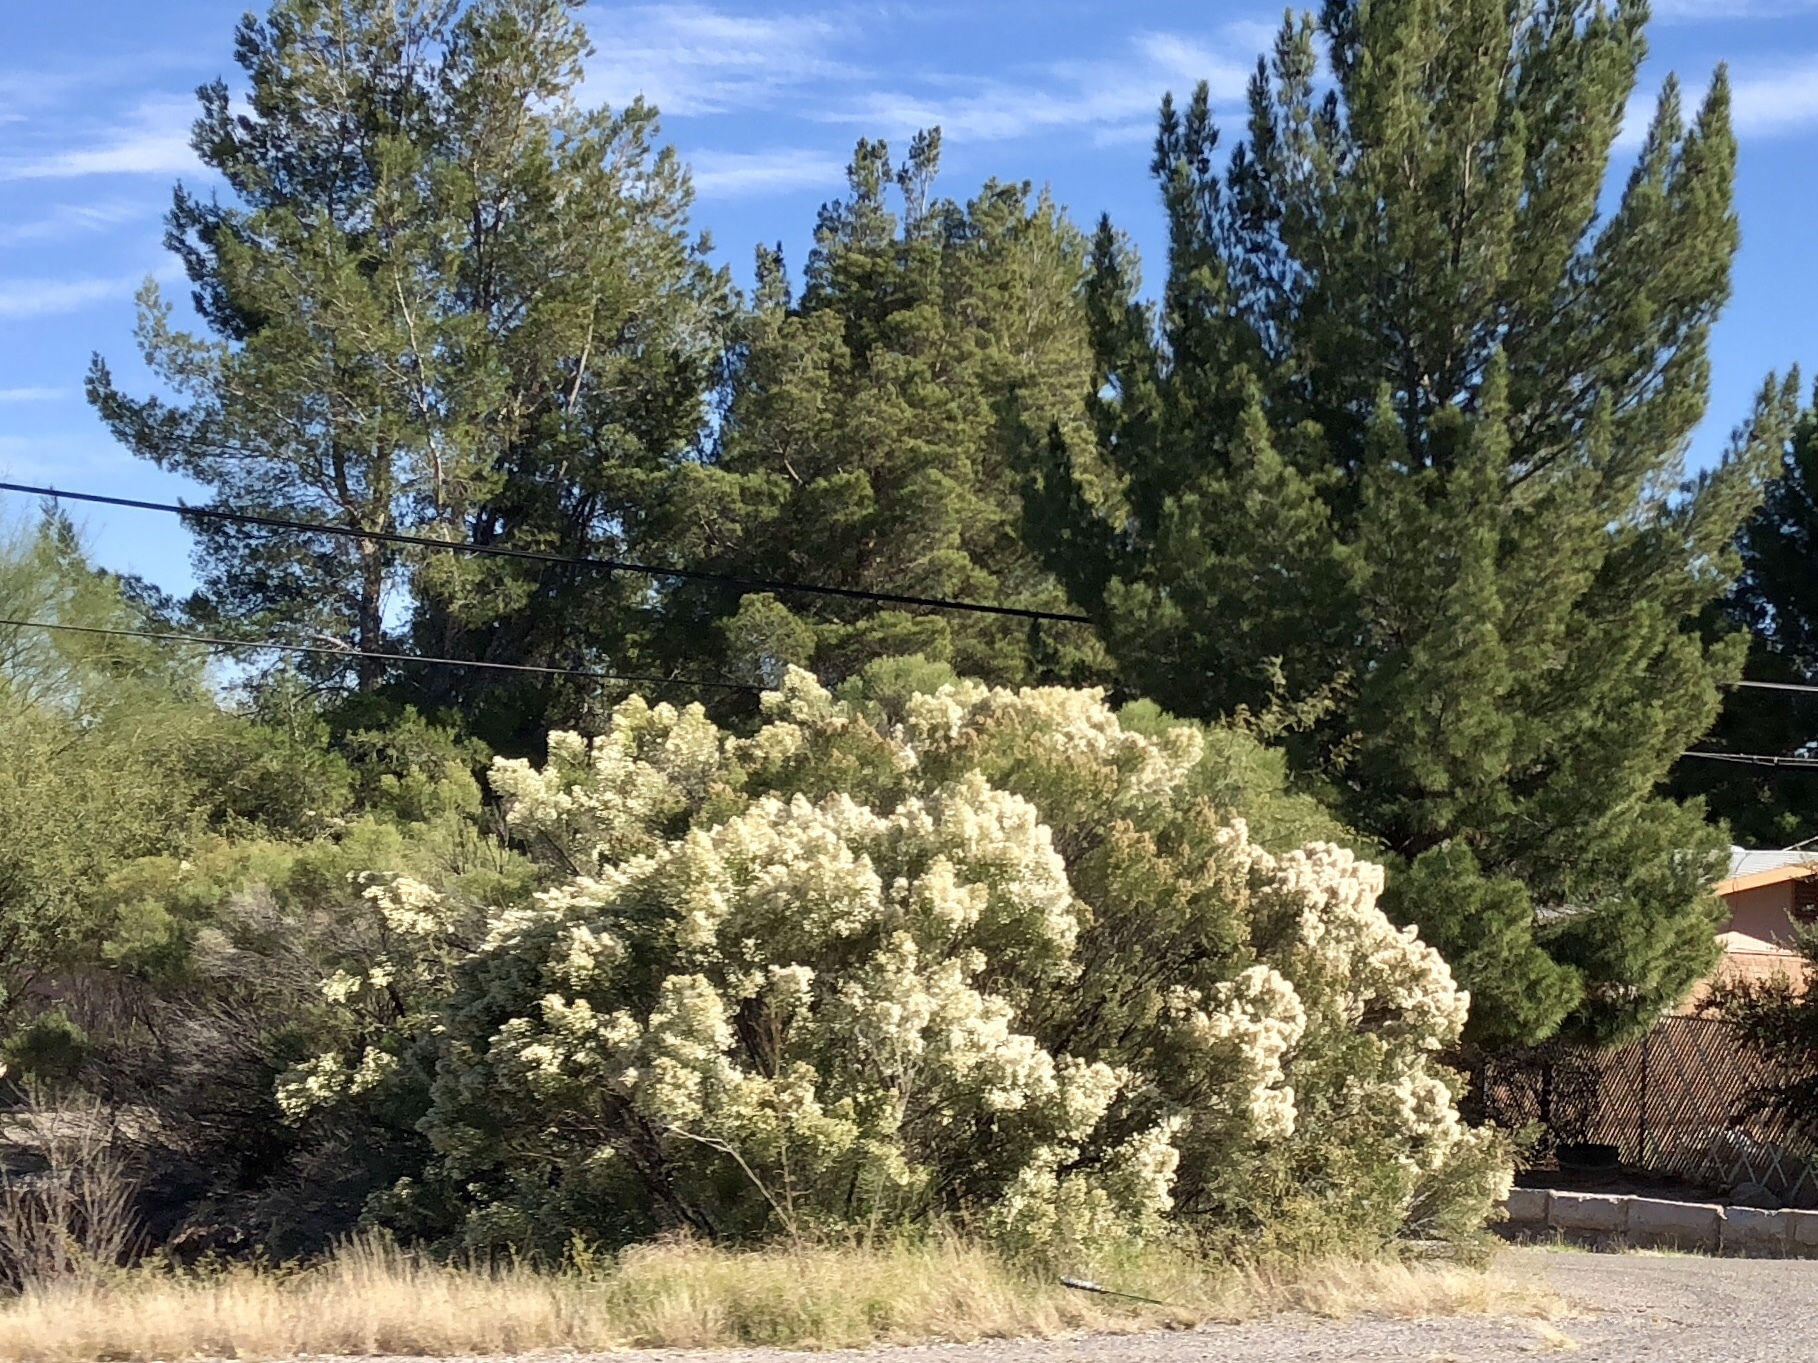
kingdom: Plantae
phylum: Tracheophyta
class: Magnoliopsida
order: Asterales
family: Asteraceae
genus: Baccharis
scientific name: Baccharis sarothroides
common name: Desert-broom
